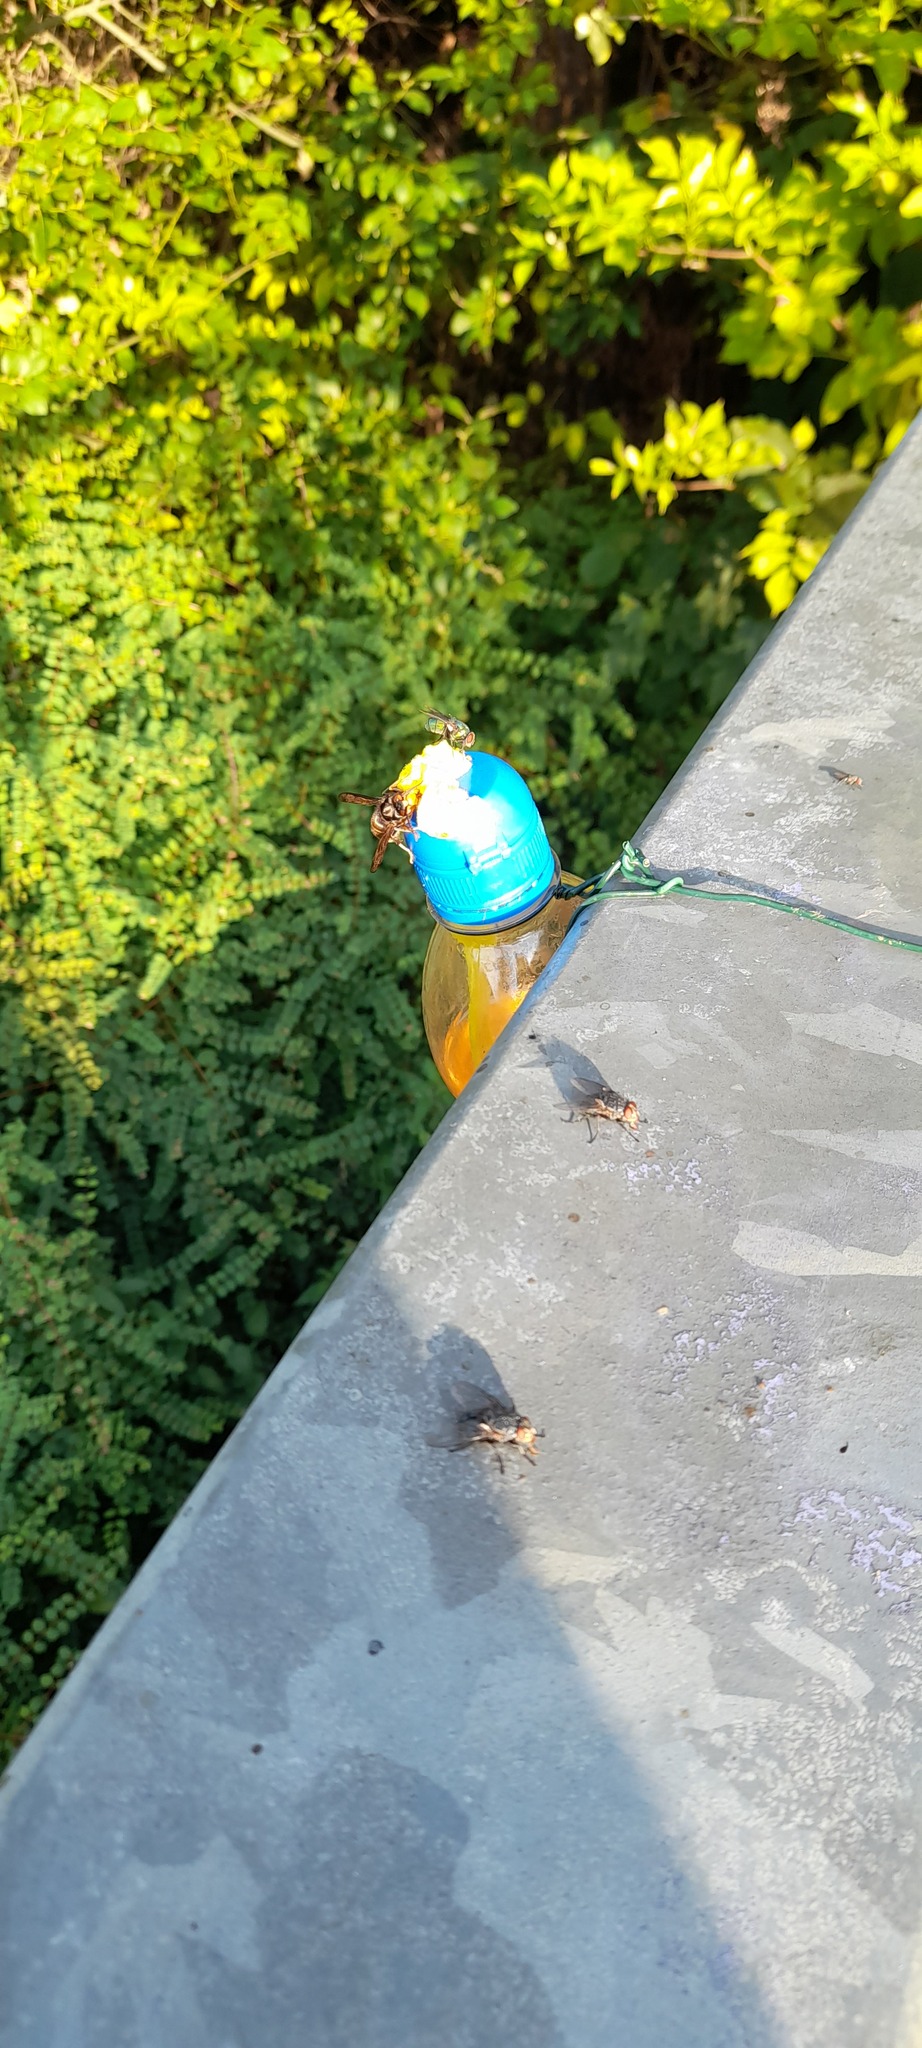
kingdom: Animalia
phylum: Arthropoda
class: Insecta
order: Hymenoptera
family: Vespidae
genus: Vespa
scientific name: Vespa velutina
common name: Asian hornet
